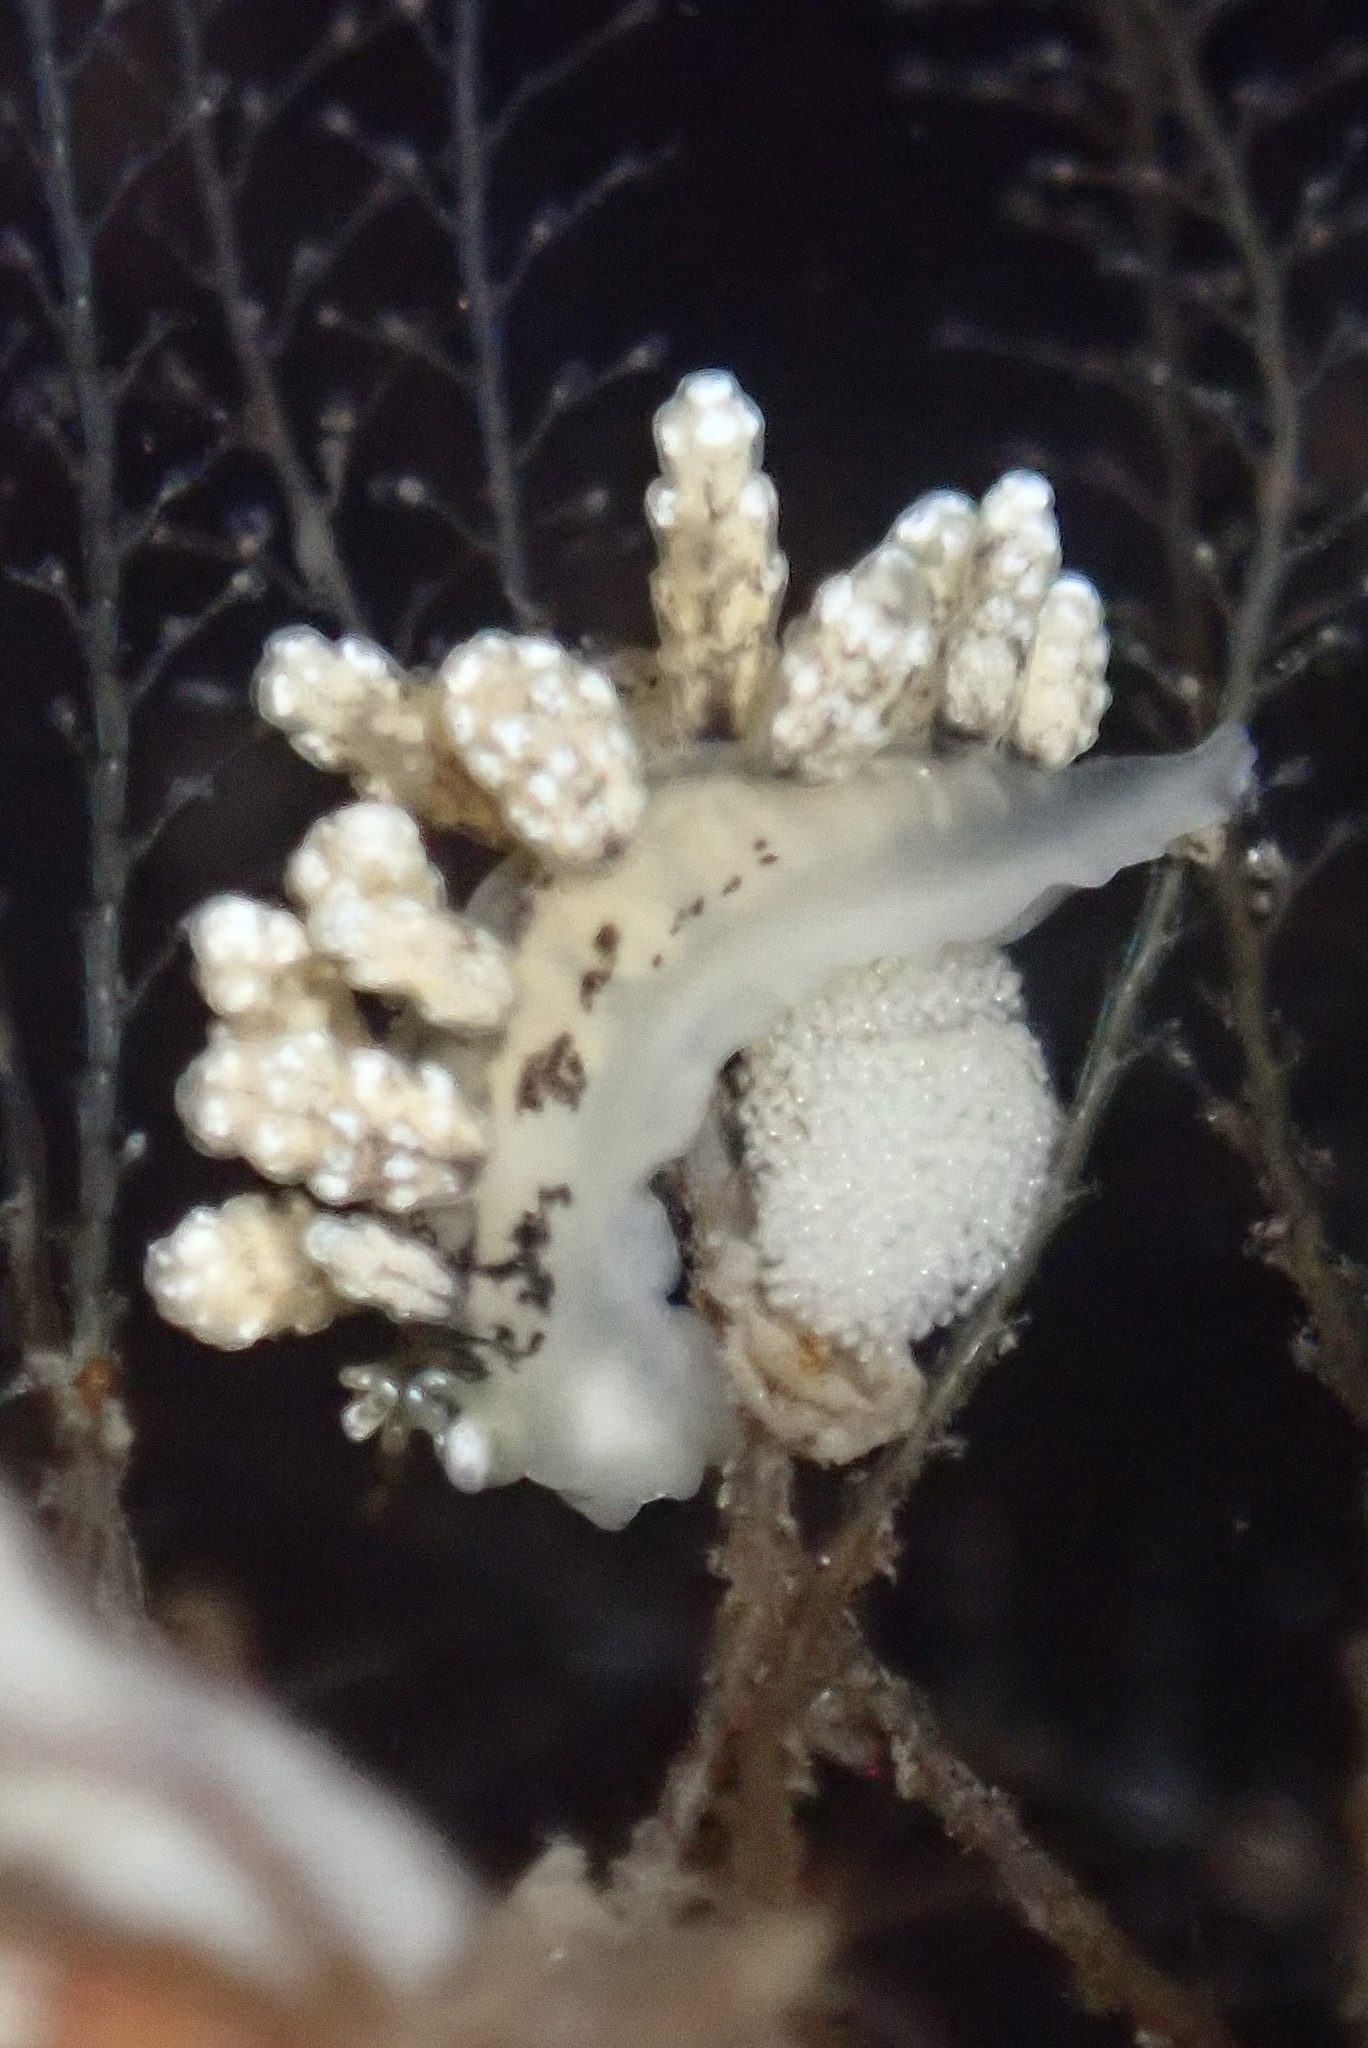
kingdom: Animalia
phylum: Mollusca
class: Gastropoda
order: Nudibranchia
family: Dotidae
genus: Doto
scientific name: Doto kya
